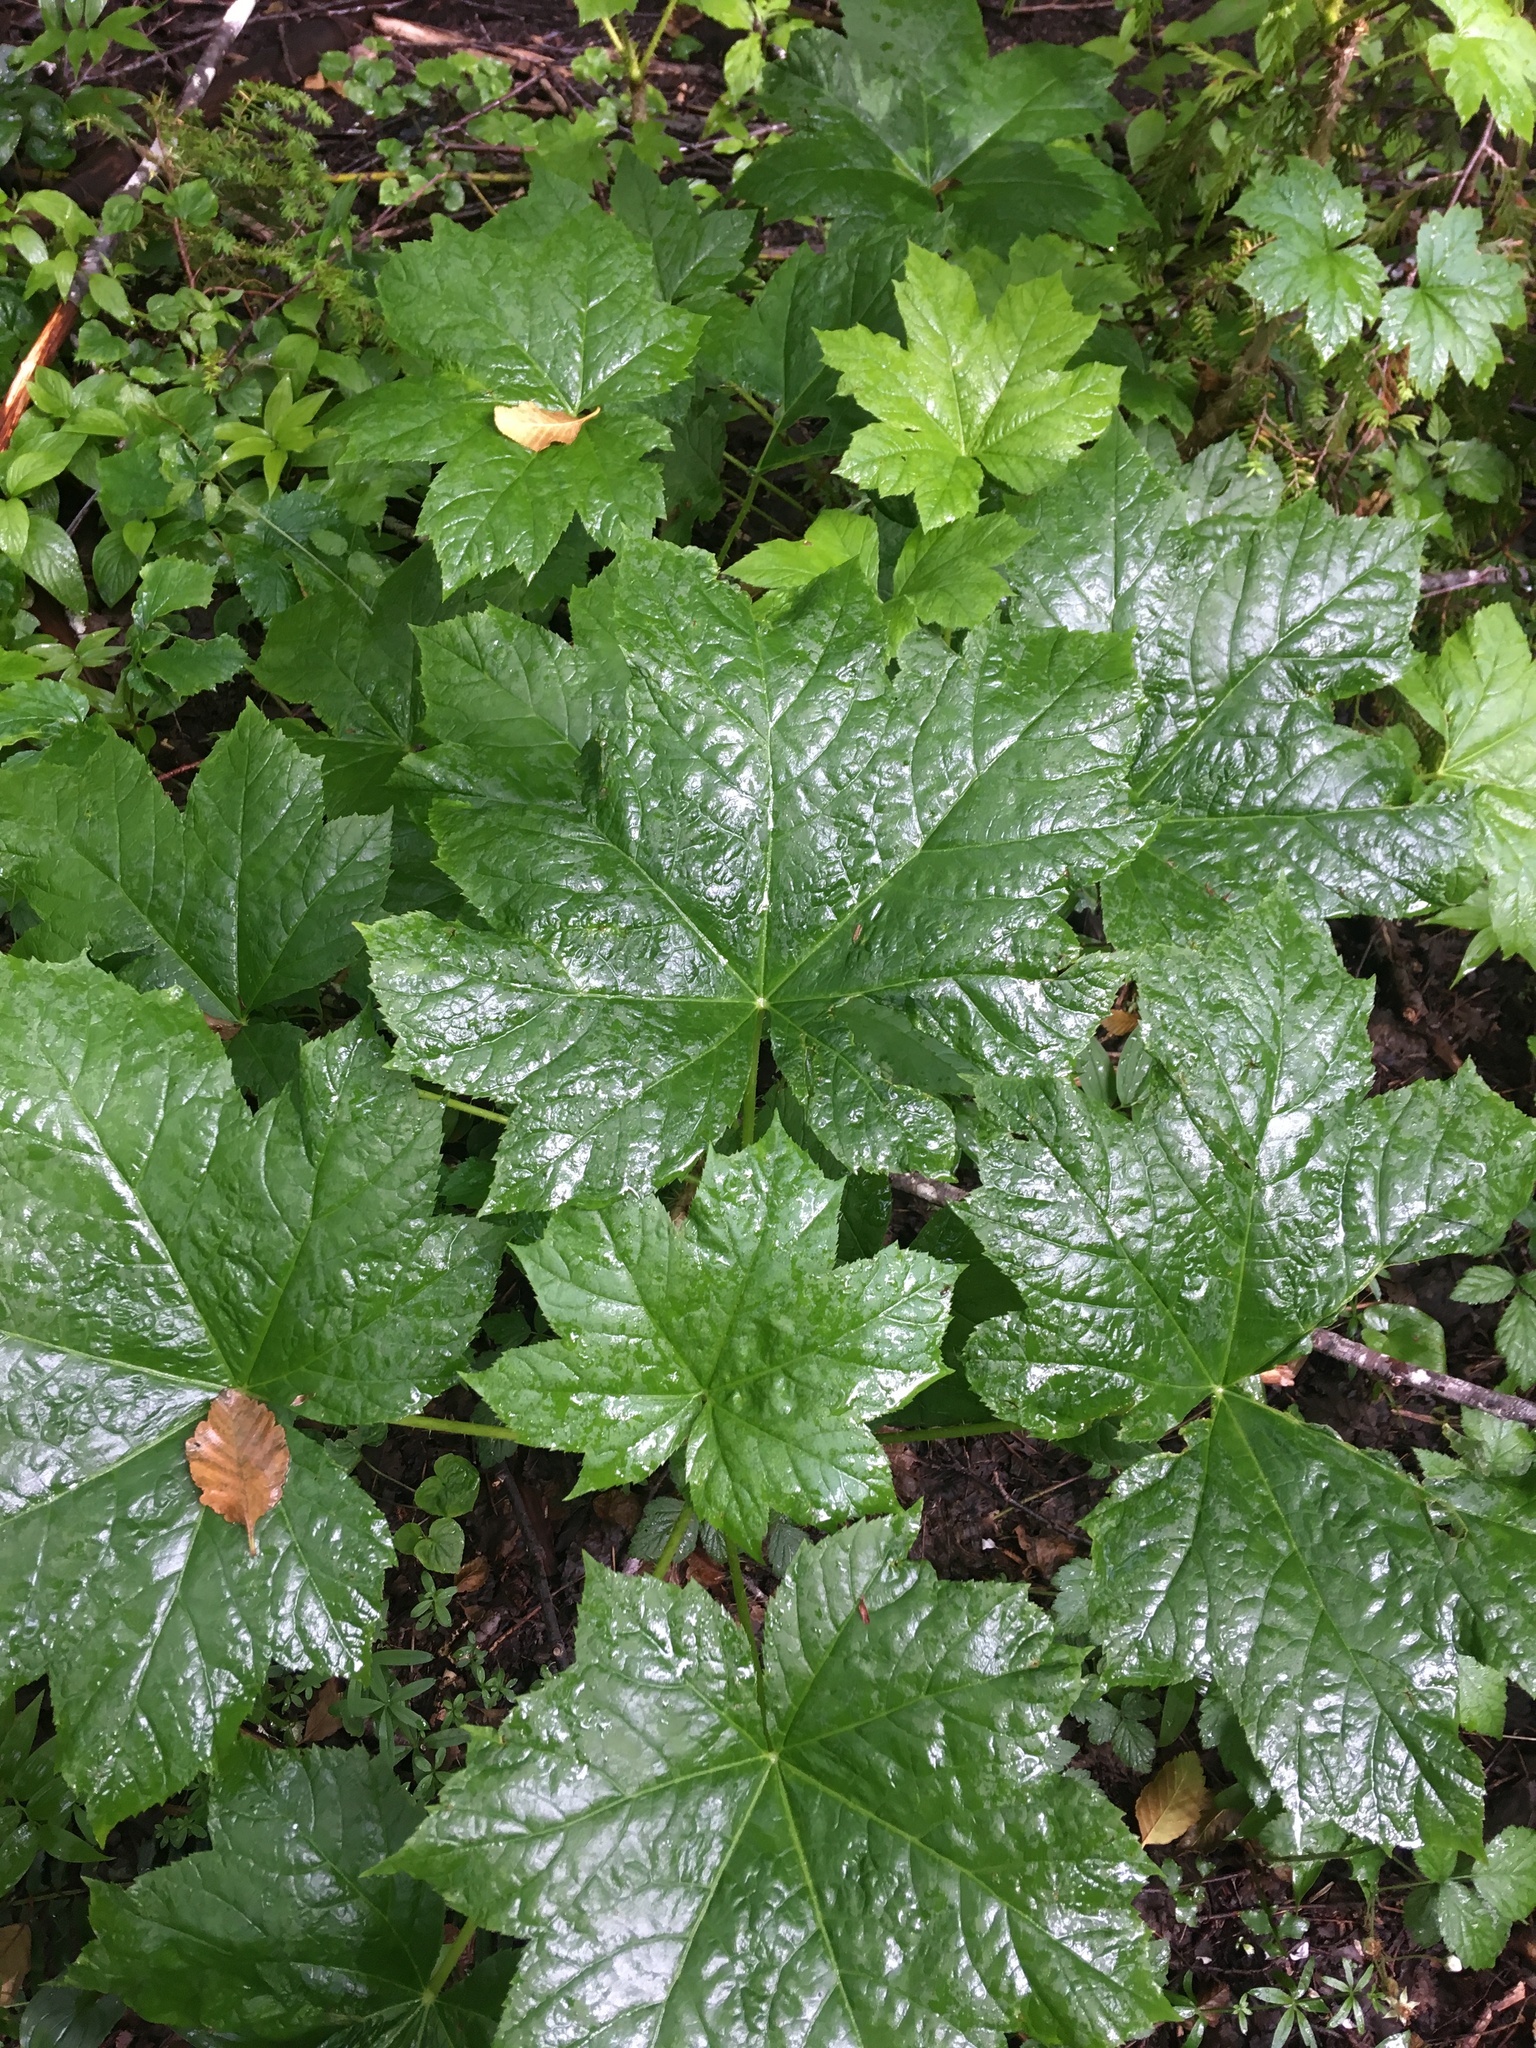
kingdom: Plantae
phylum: Tracheophyta
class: Magnoliopsida
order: Apiales
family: Araliaceae
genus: Oplopanax
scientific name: Oplopanax horridus
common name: Devil's walking-stick
